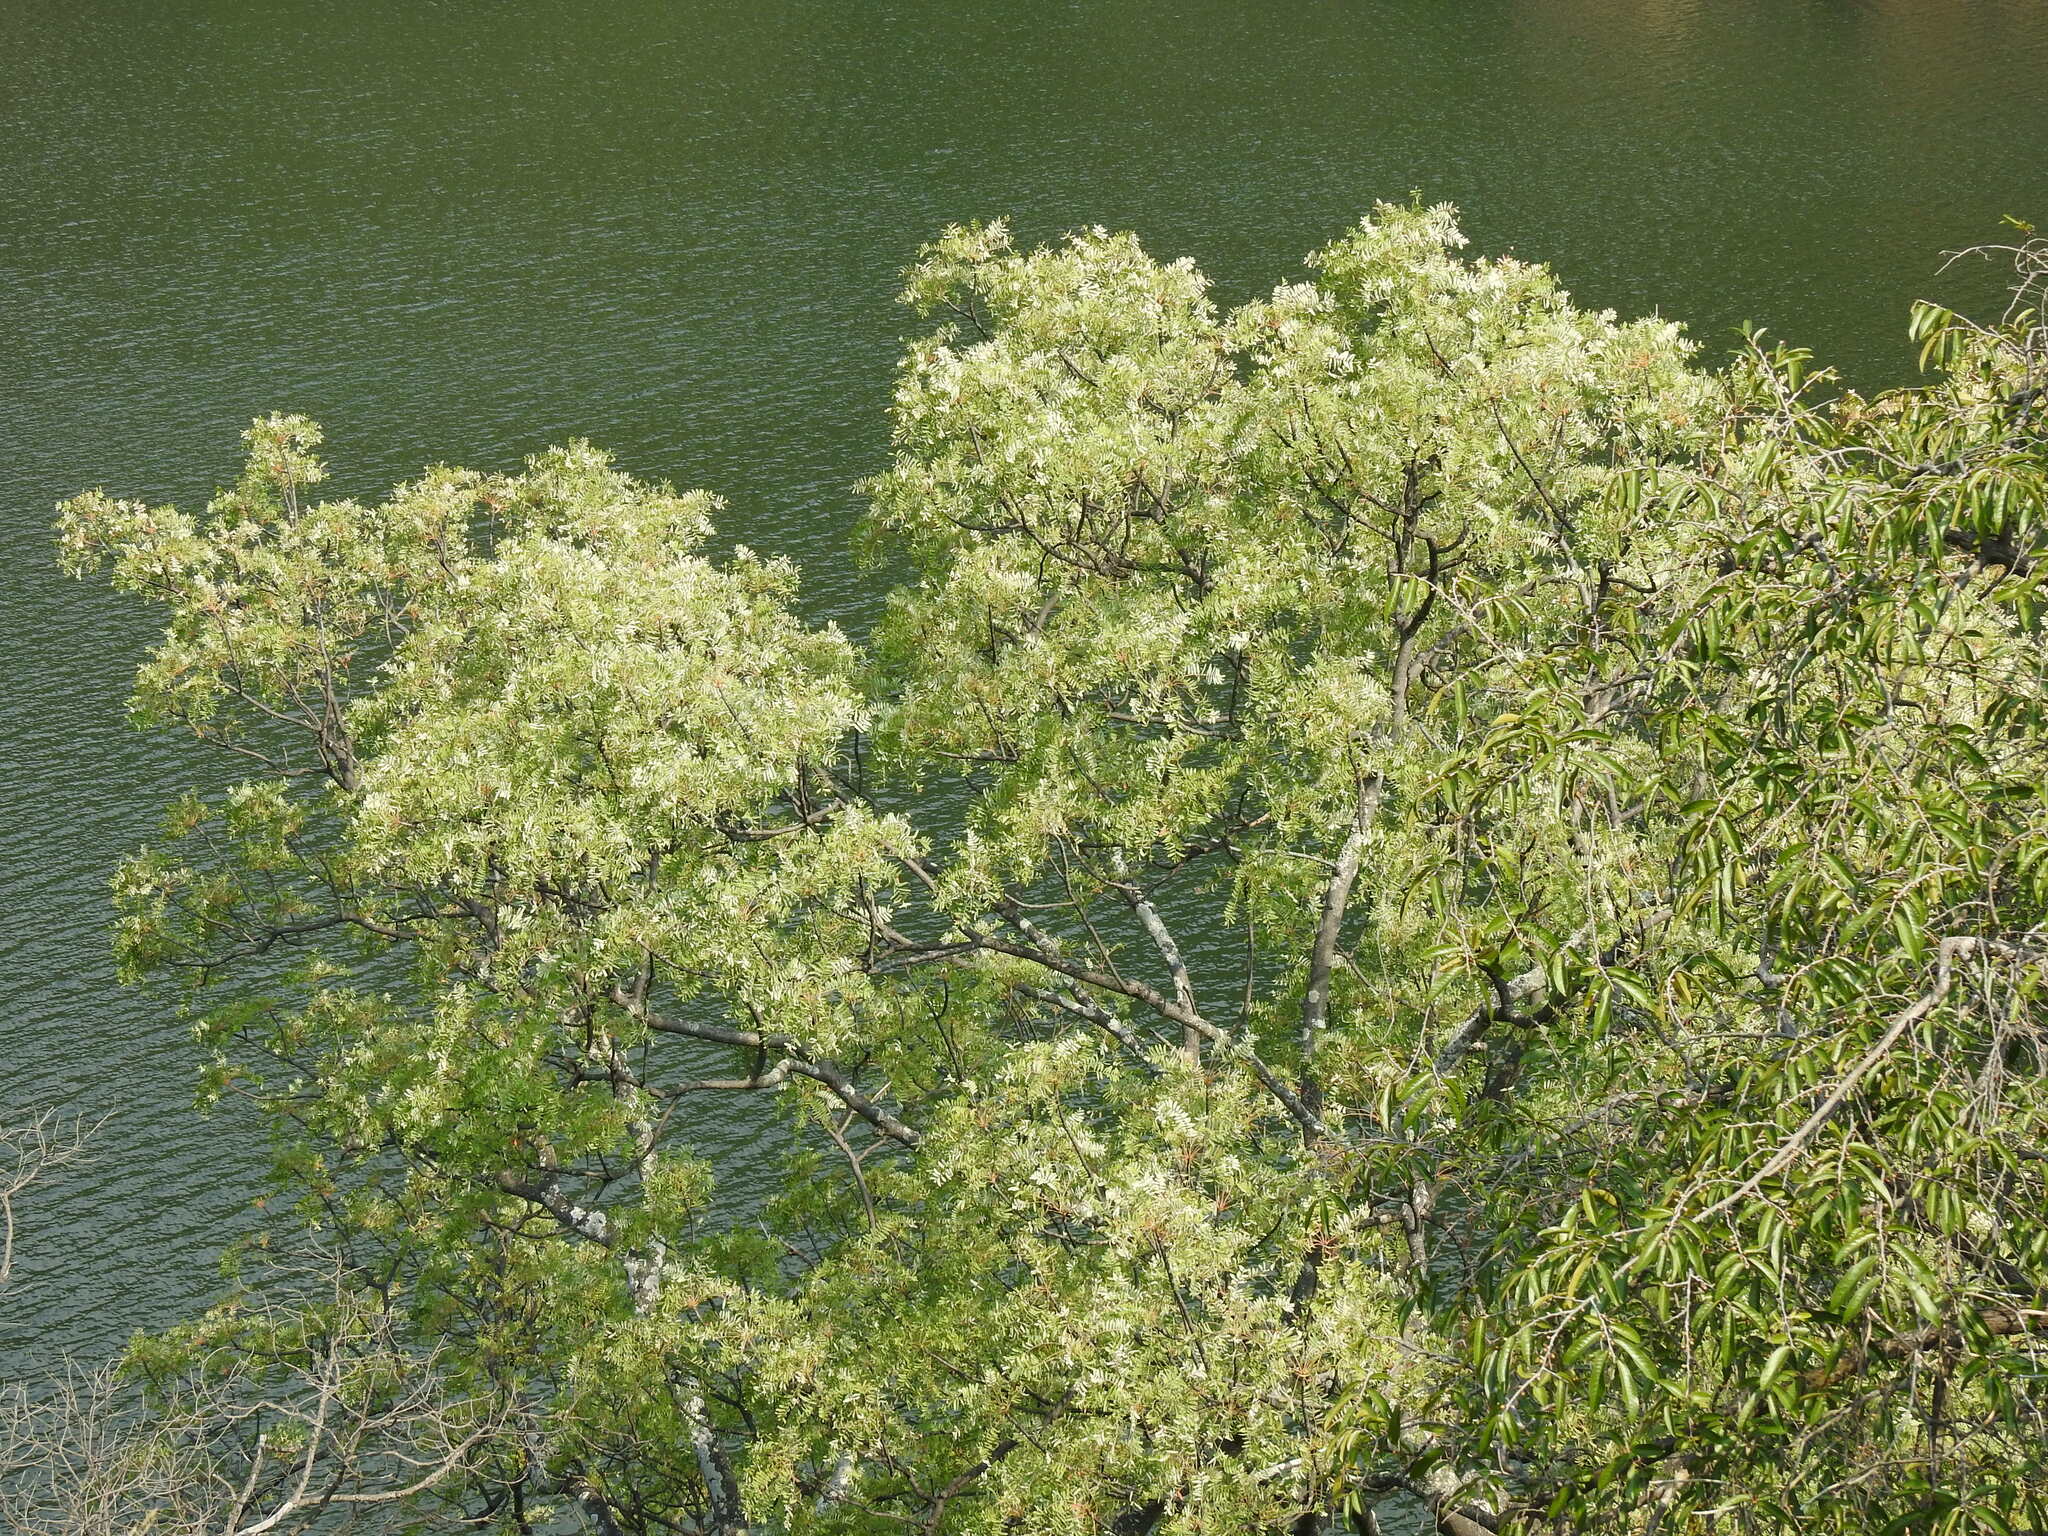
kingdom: Plantae
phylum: Tracheophyta
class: Magnoliopsida
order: Sapindales
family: Kirkiaceae
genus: Kirkia
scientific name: Kirkia wilmsii
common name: Mountain seringa
